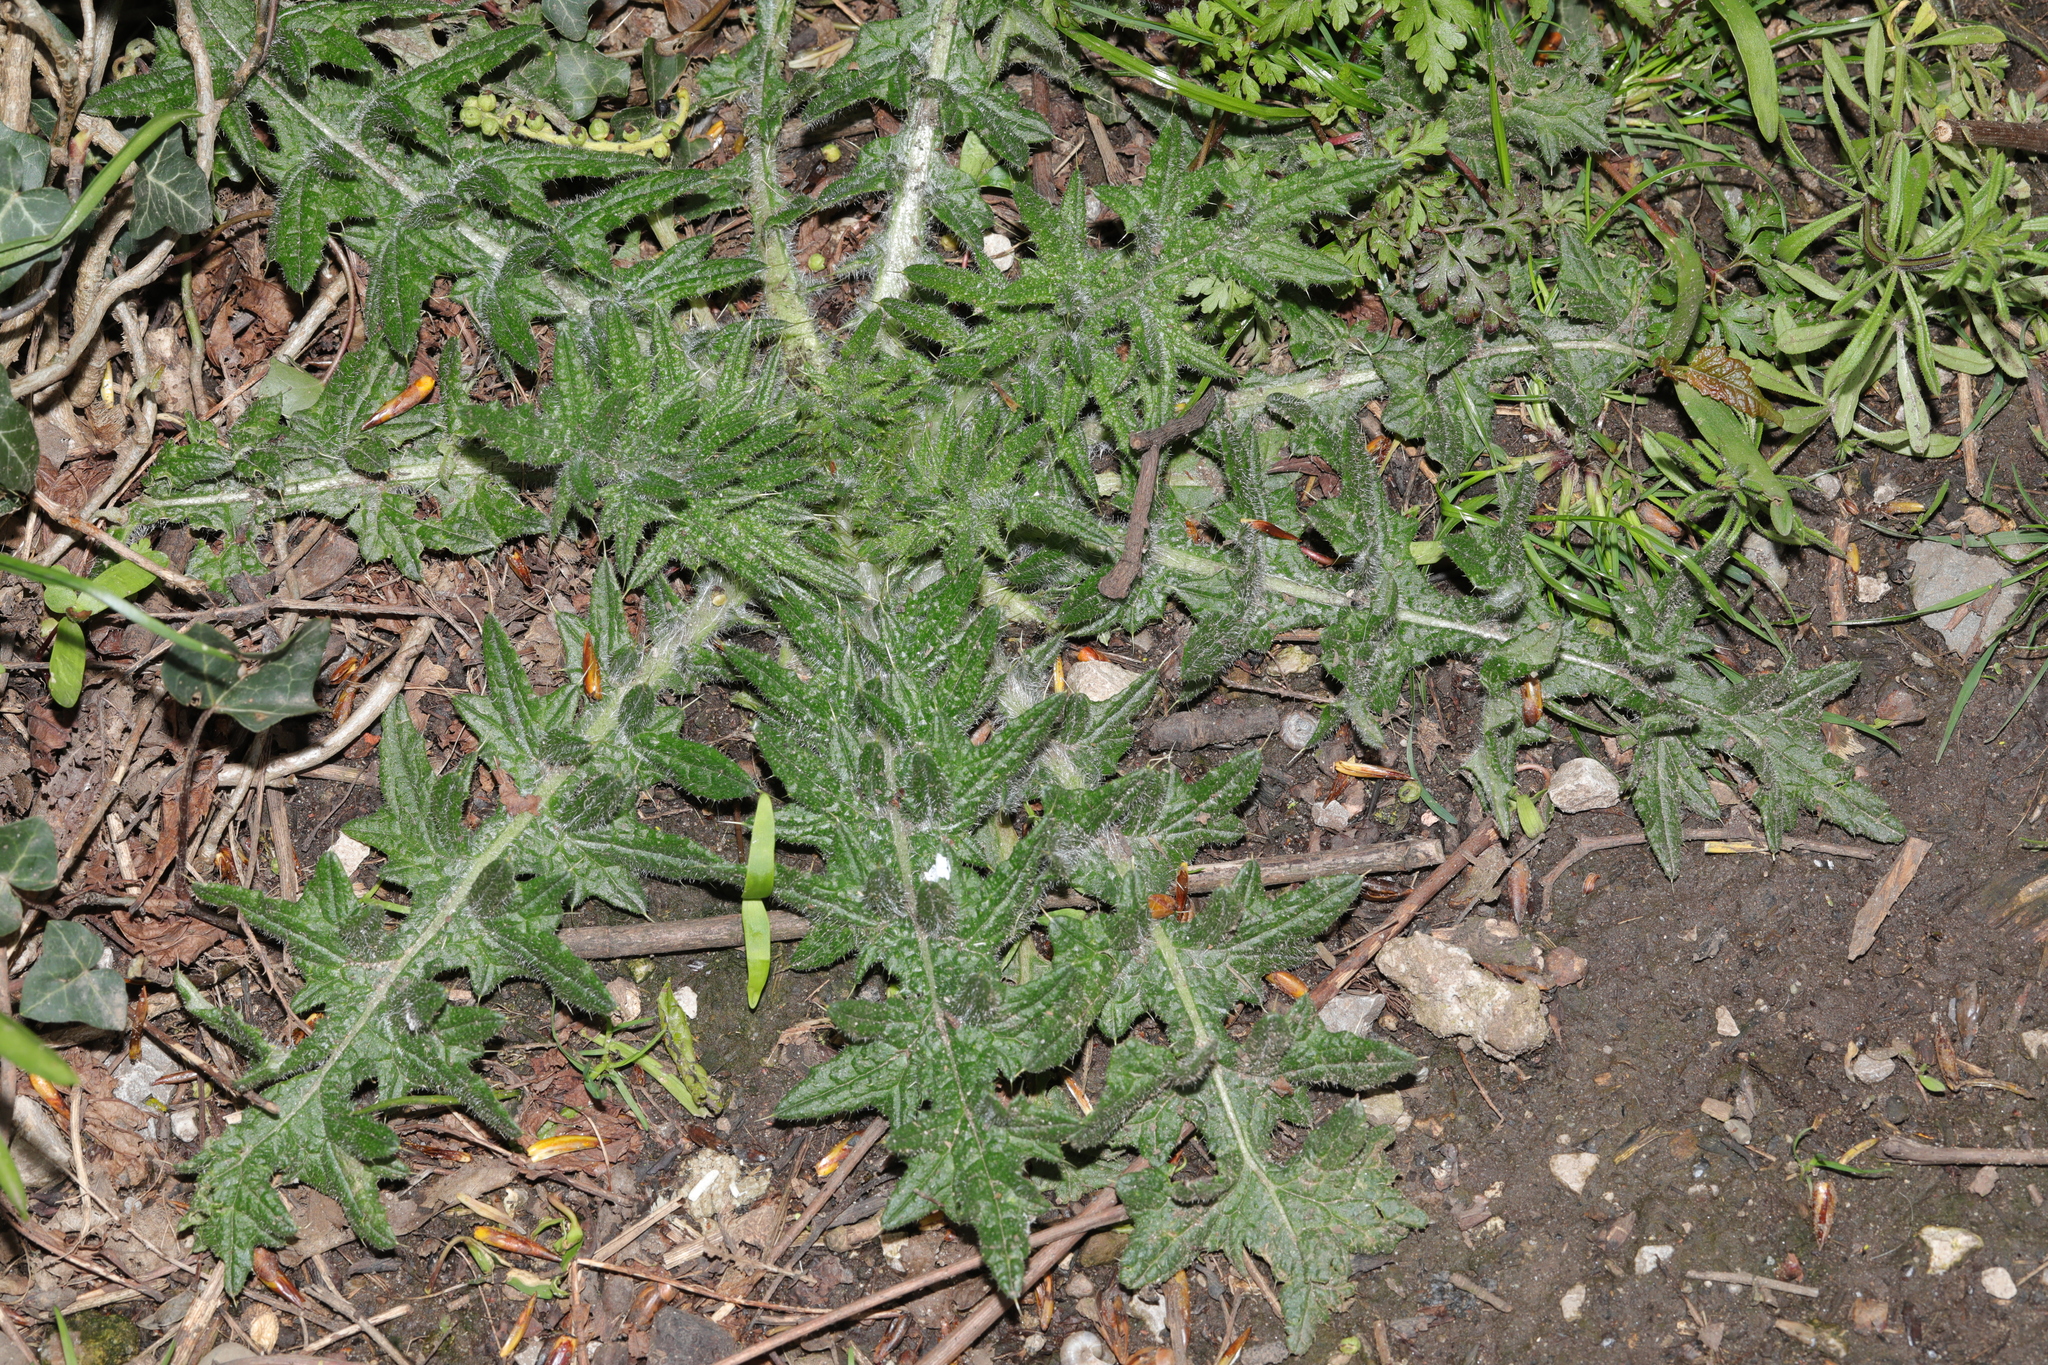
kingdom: Plantae
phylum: Tracheophyta
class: Magnoliopsida
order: Asterales
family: Asteraceae
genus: Cirsium
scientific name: Cirsium vulgare
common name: Bull thistle
